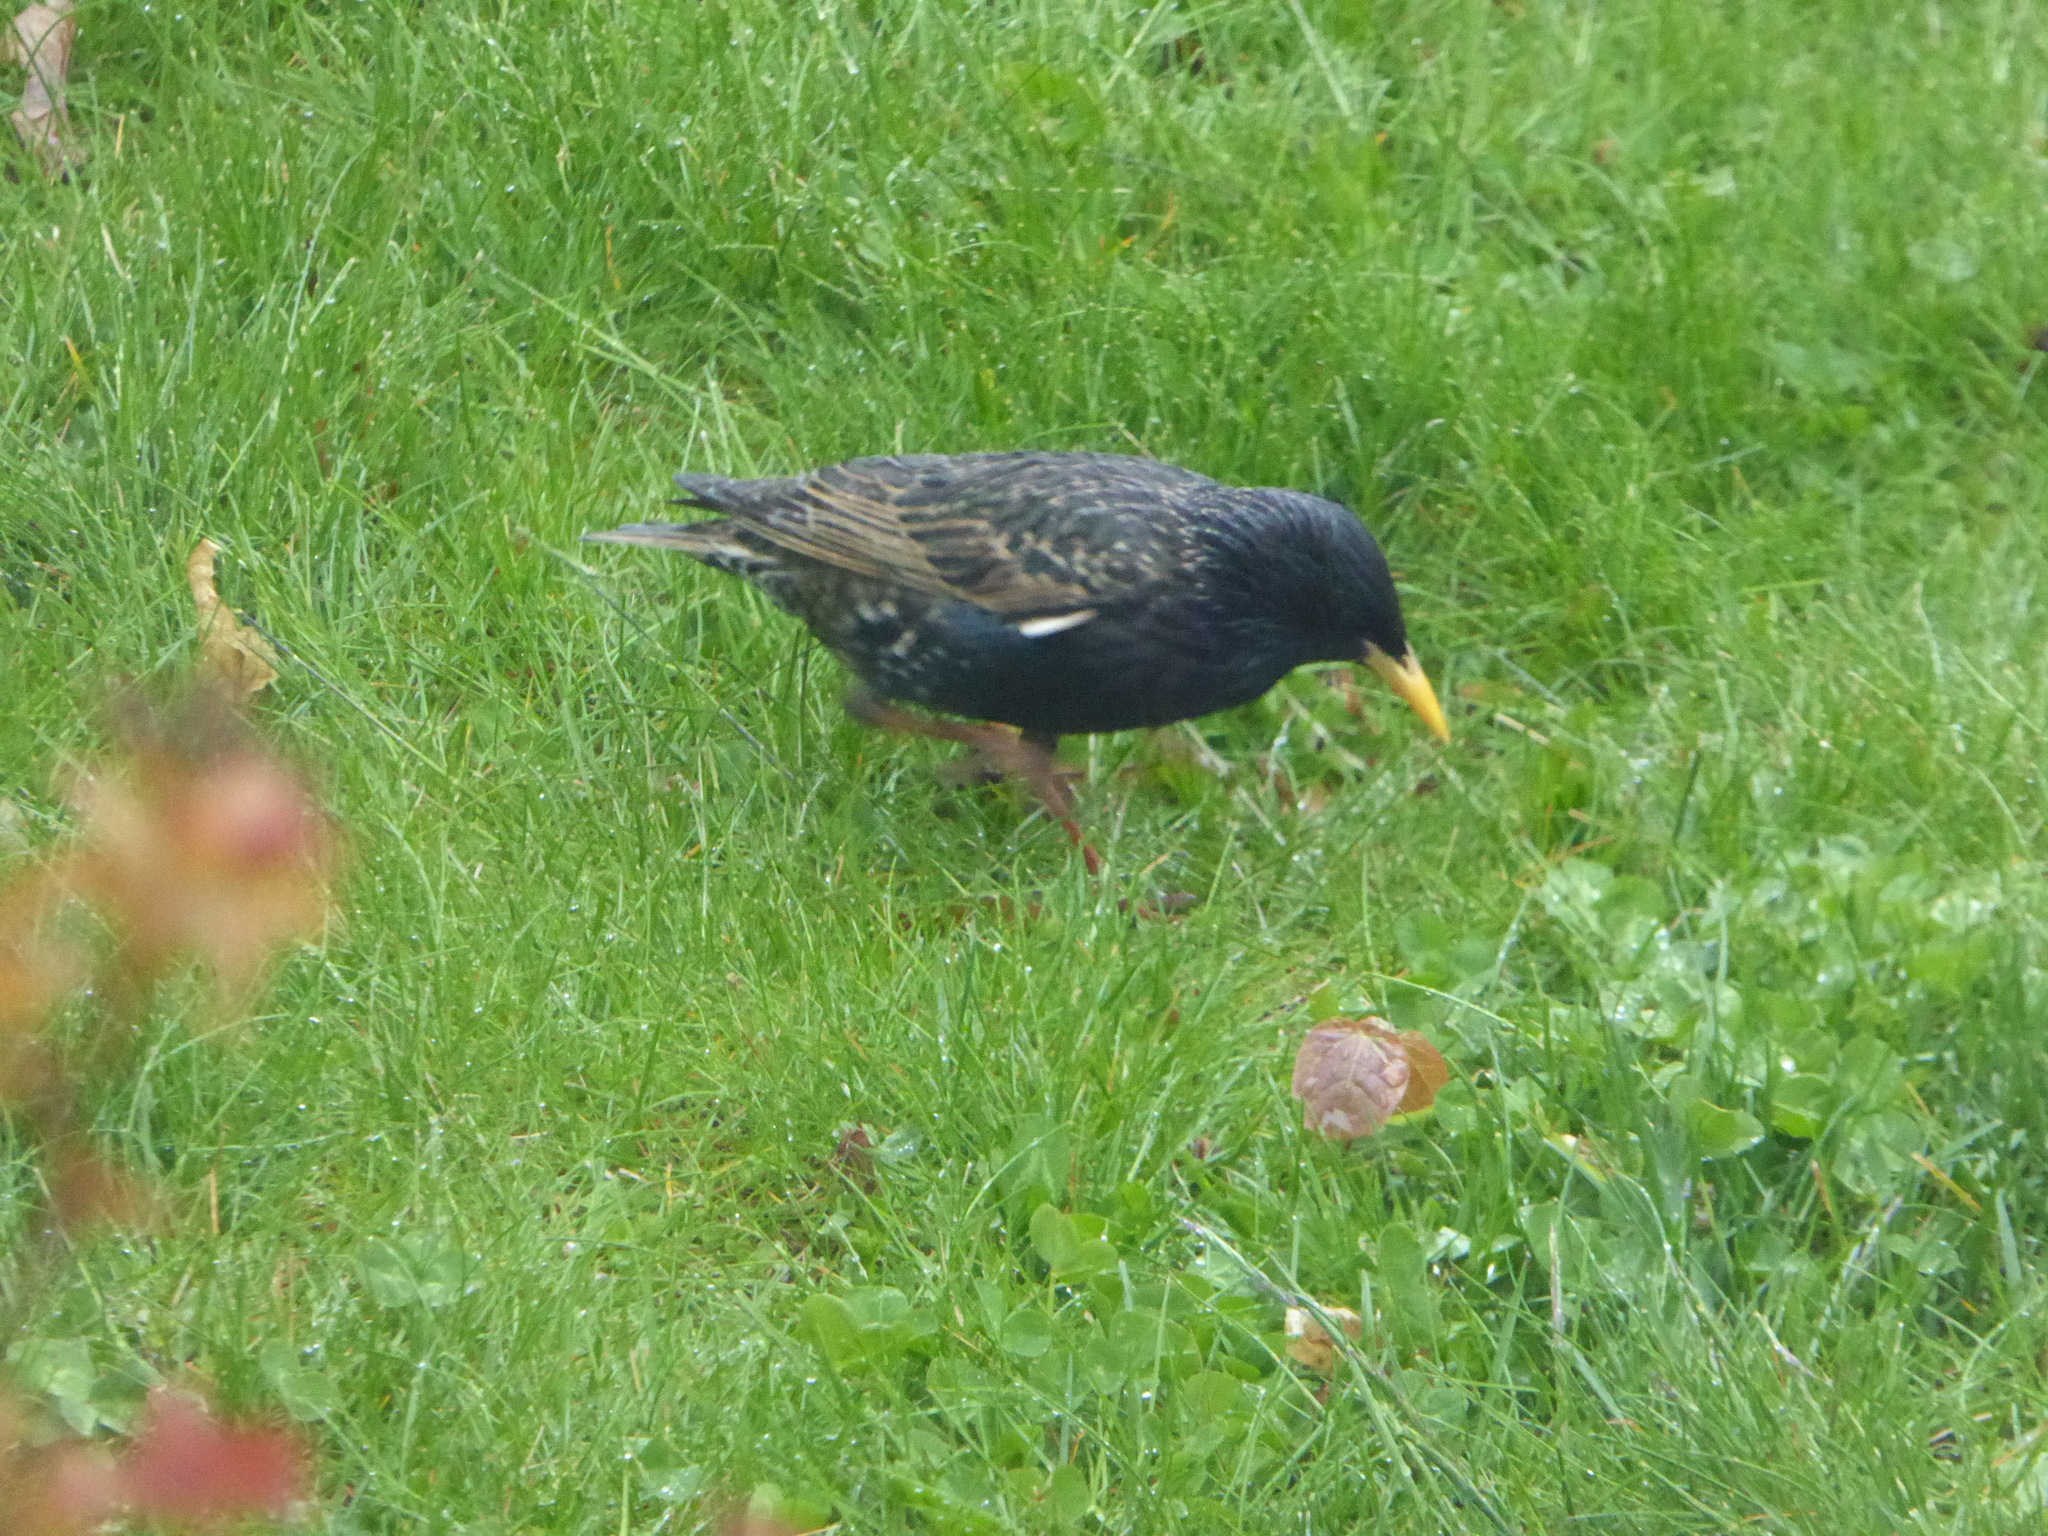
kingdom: Animalia
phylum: Chordata
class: Aves
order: Passeriformes
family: Sturnidae
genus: Sturnus
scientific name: Sturnus vulgaris
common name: Common starling
